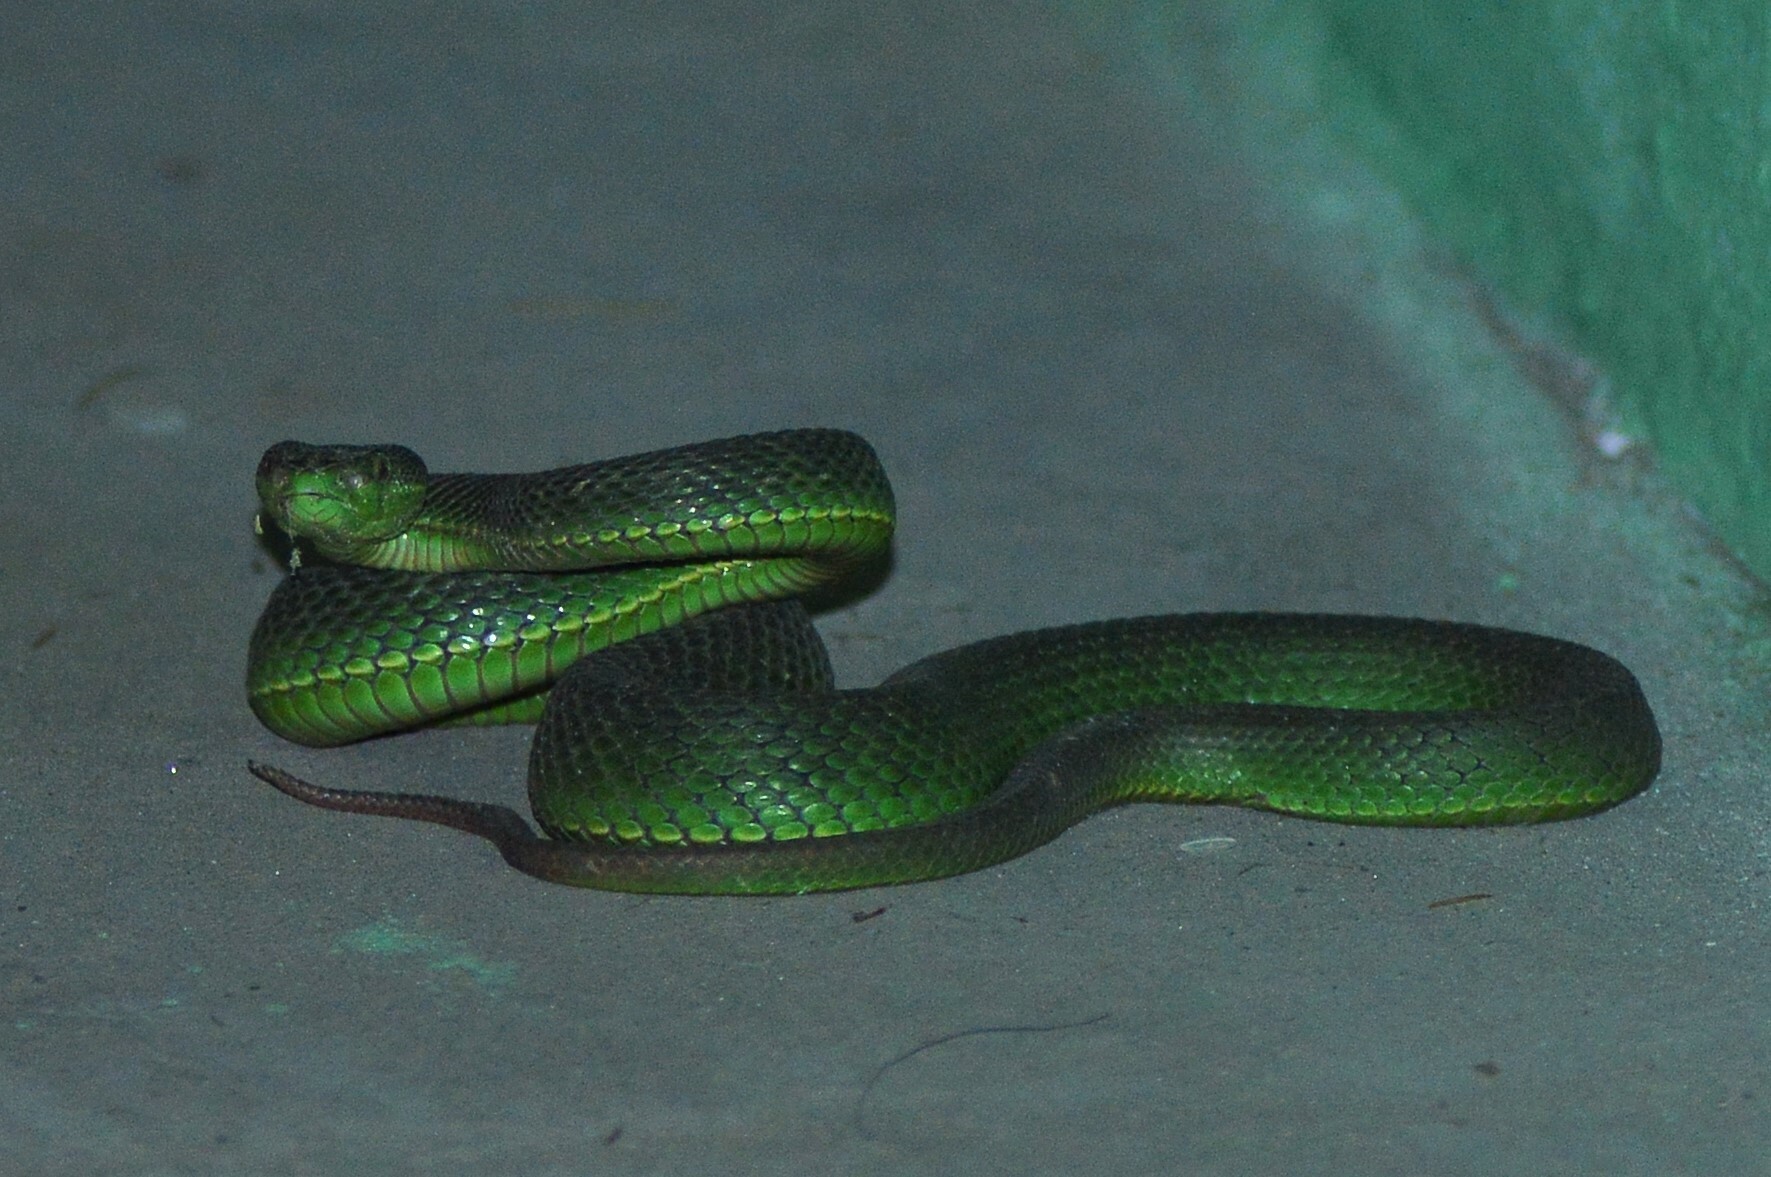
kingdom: Animalia
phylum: Chordata
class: Squamata
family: Viperidae
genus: Trimeresurus
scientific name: Trimeresurus septentrionalis
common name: Himalayan white-lipped pitviper
